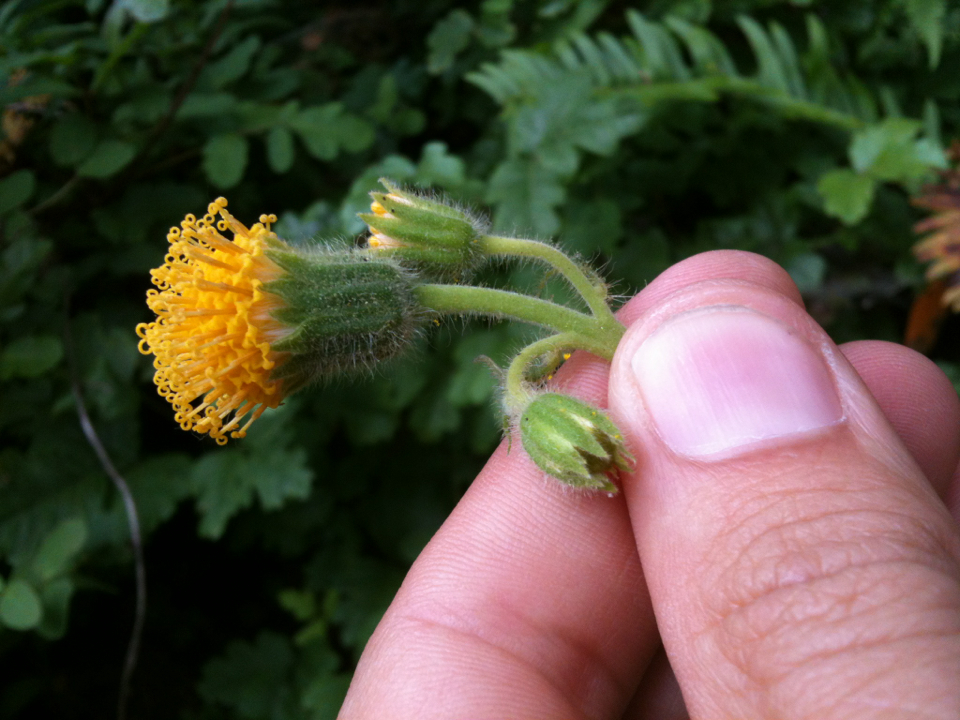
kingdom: Plantae
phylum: Tracheophyta
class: Magnoliopsida
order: Asterales
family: Asteraceae
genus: Arnica
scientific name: Arnica discoidea
